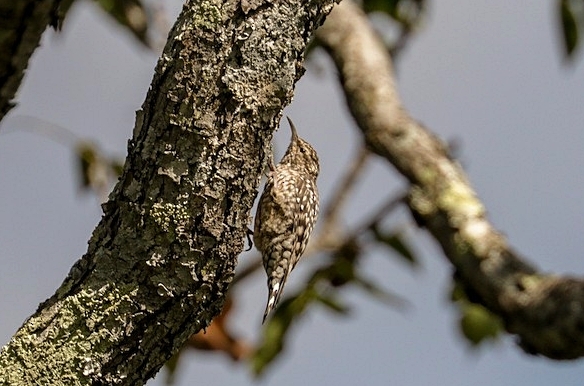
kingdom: Animalia
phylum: Chordata
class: Aves
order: Passeriformes
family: Certhiidae
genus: Salpornis
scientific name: Salpornis salvadori
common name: African spotted creeper
